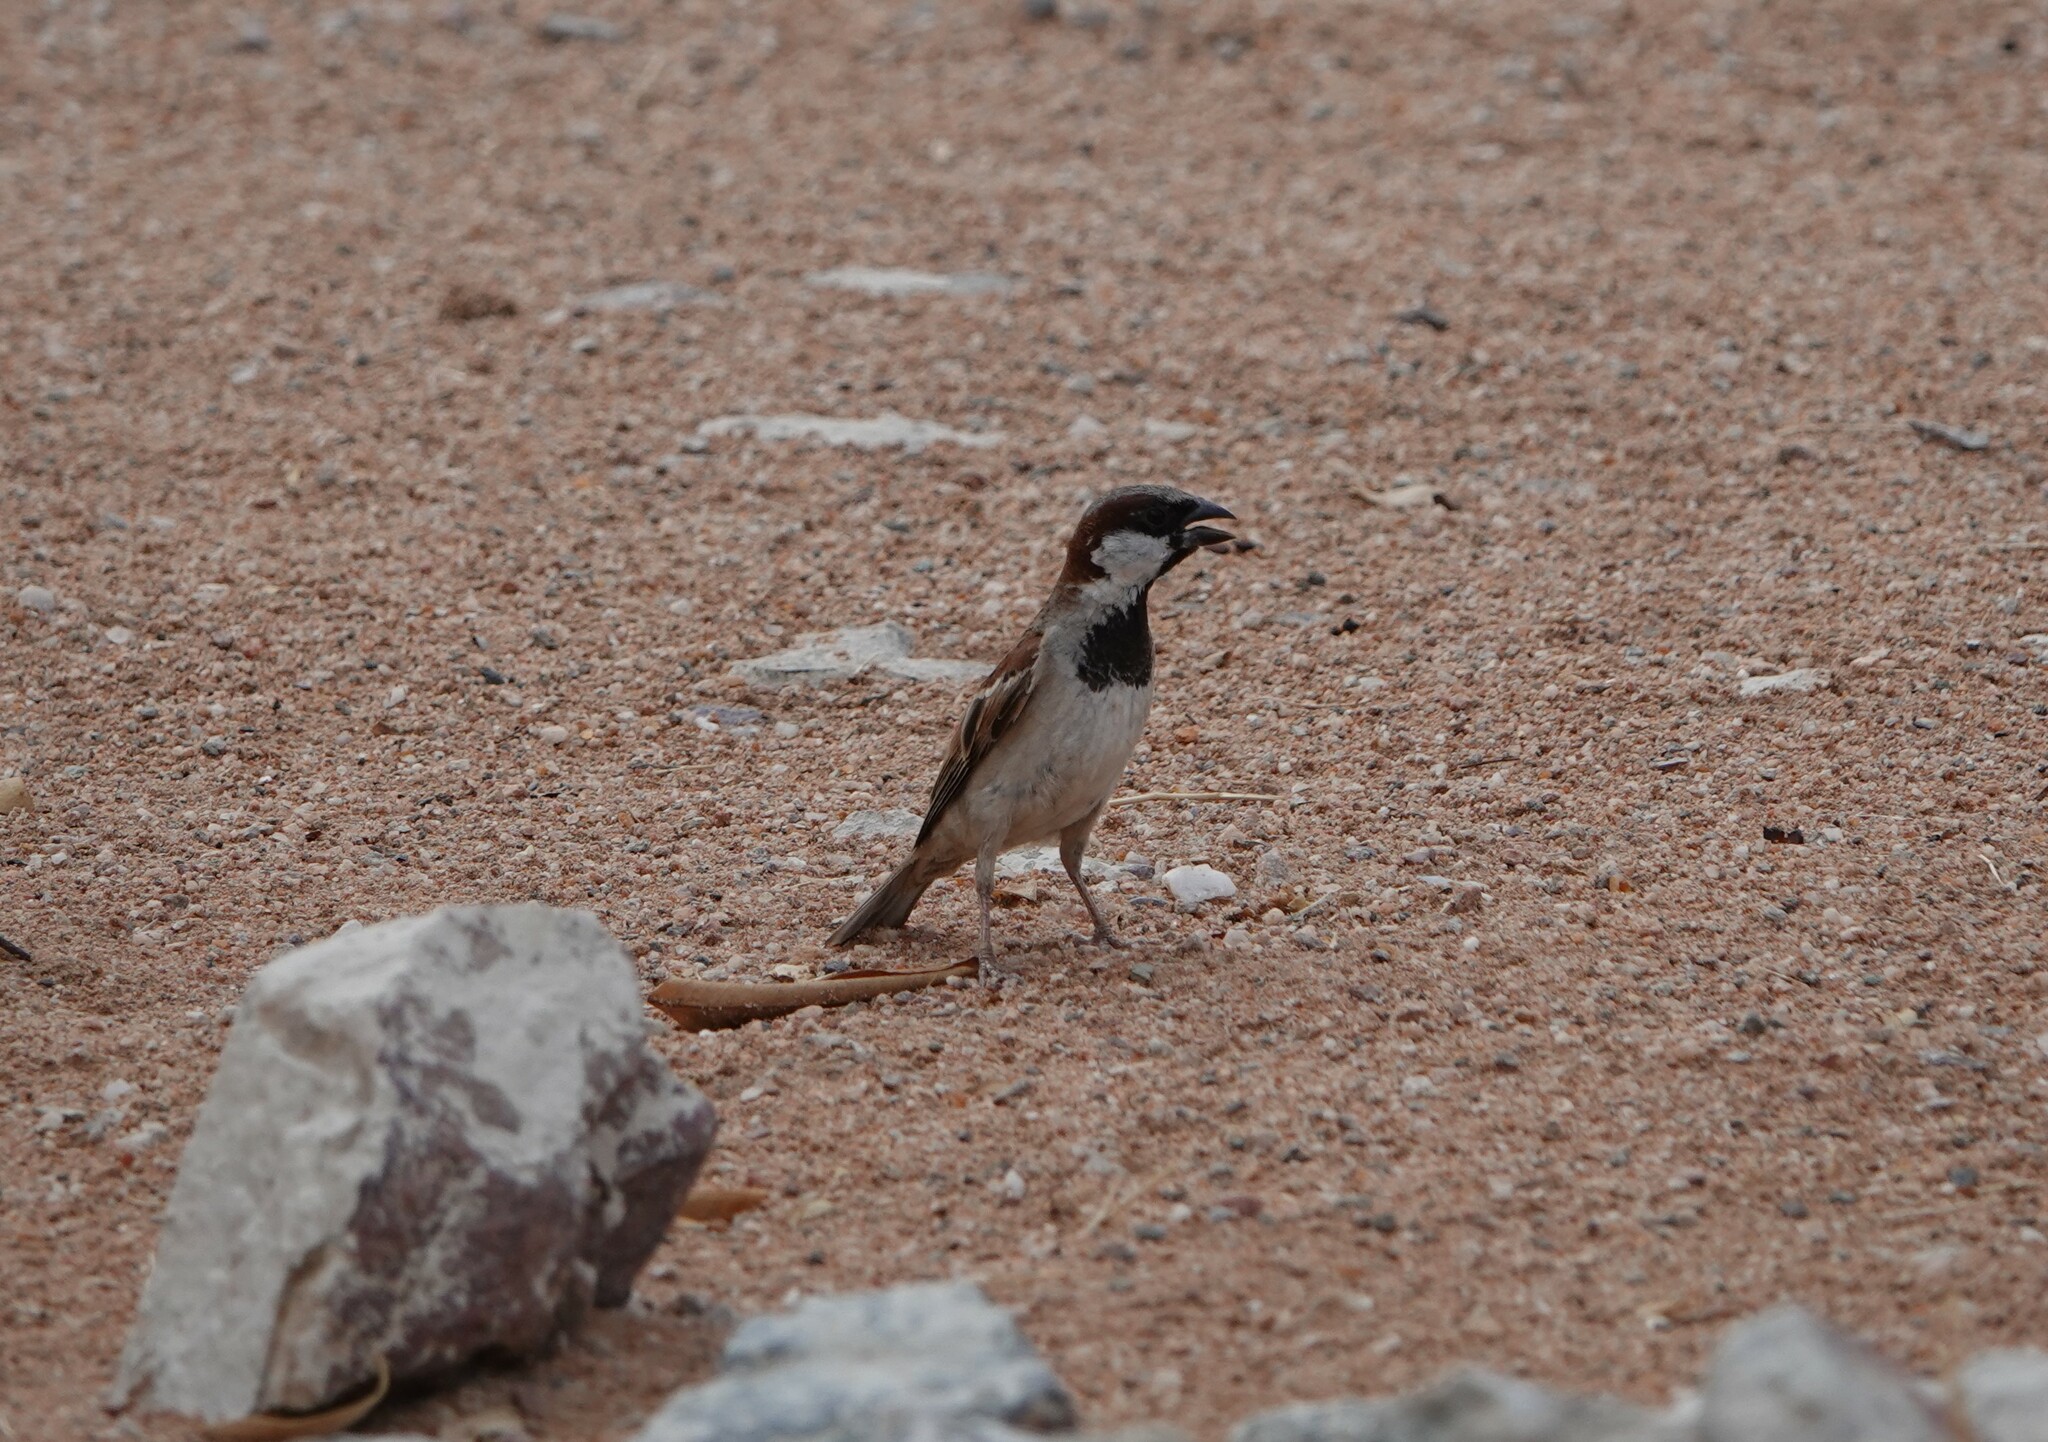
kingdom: Animalia
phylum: Chordata
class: Aves
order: Passeriformes
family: Passeridae
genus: Passer
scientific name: Passer motitensis
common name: Great sparrow
